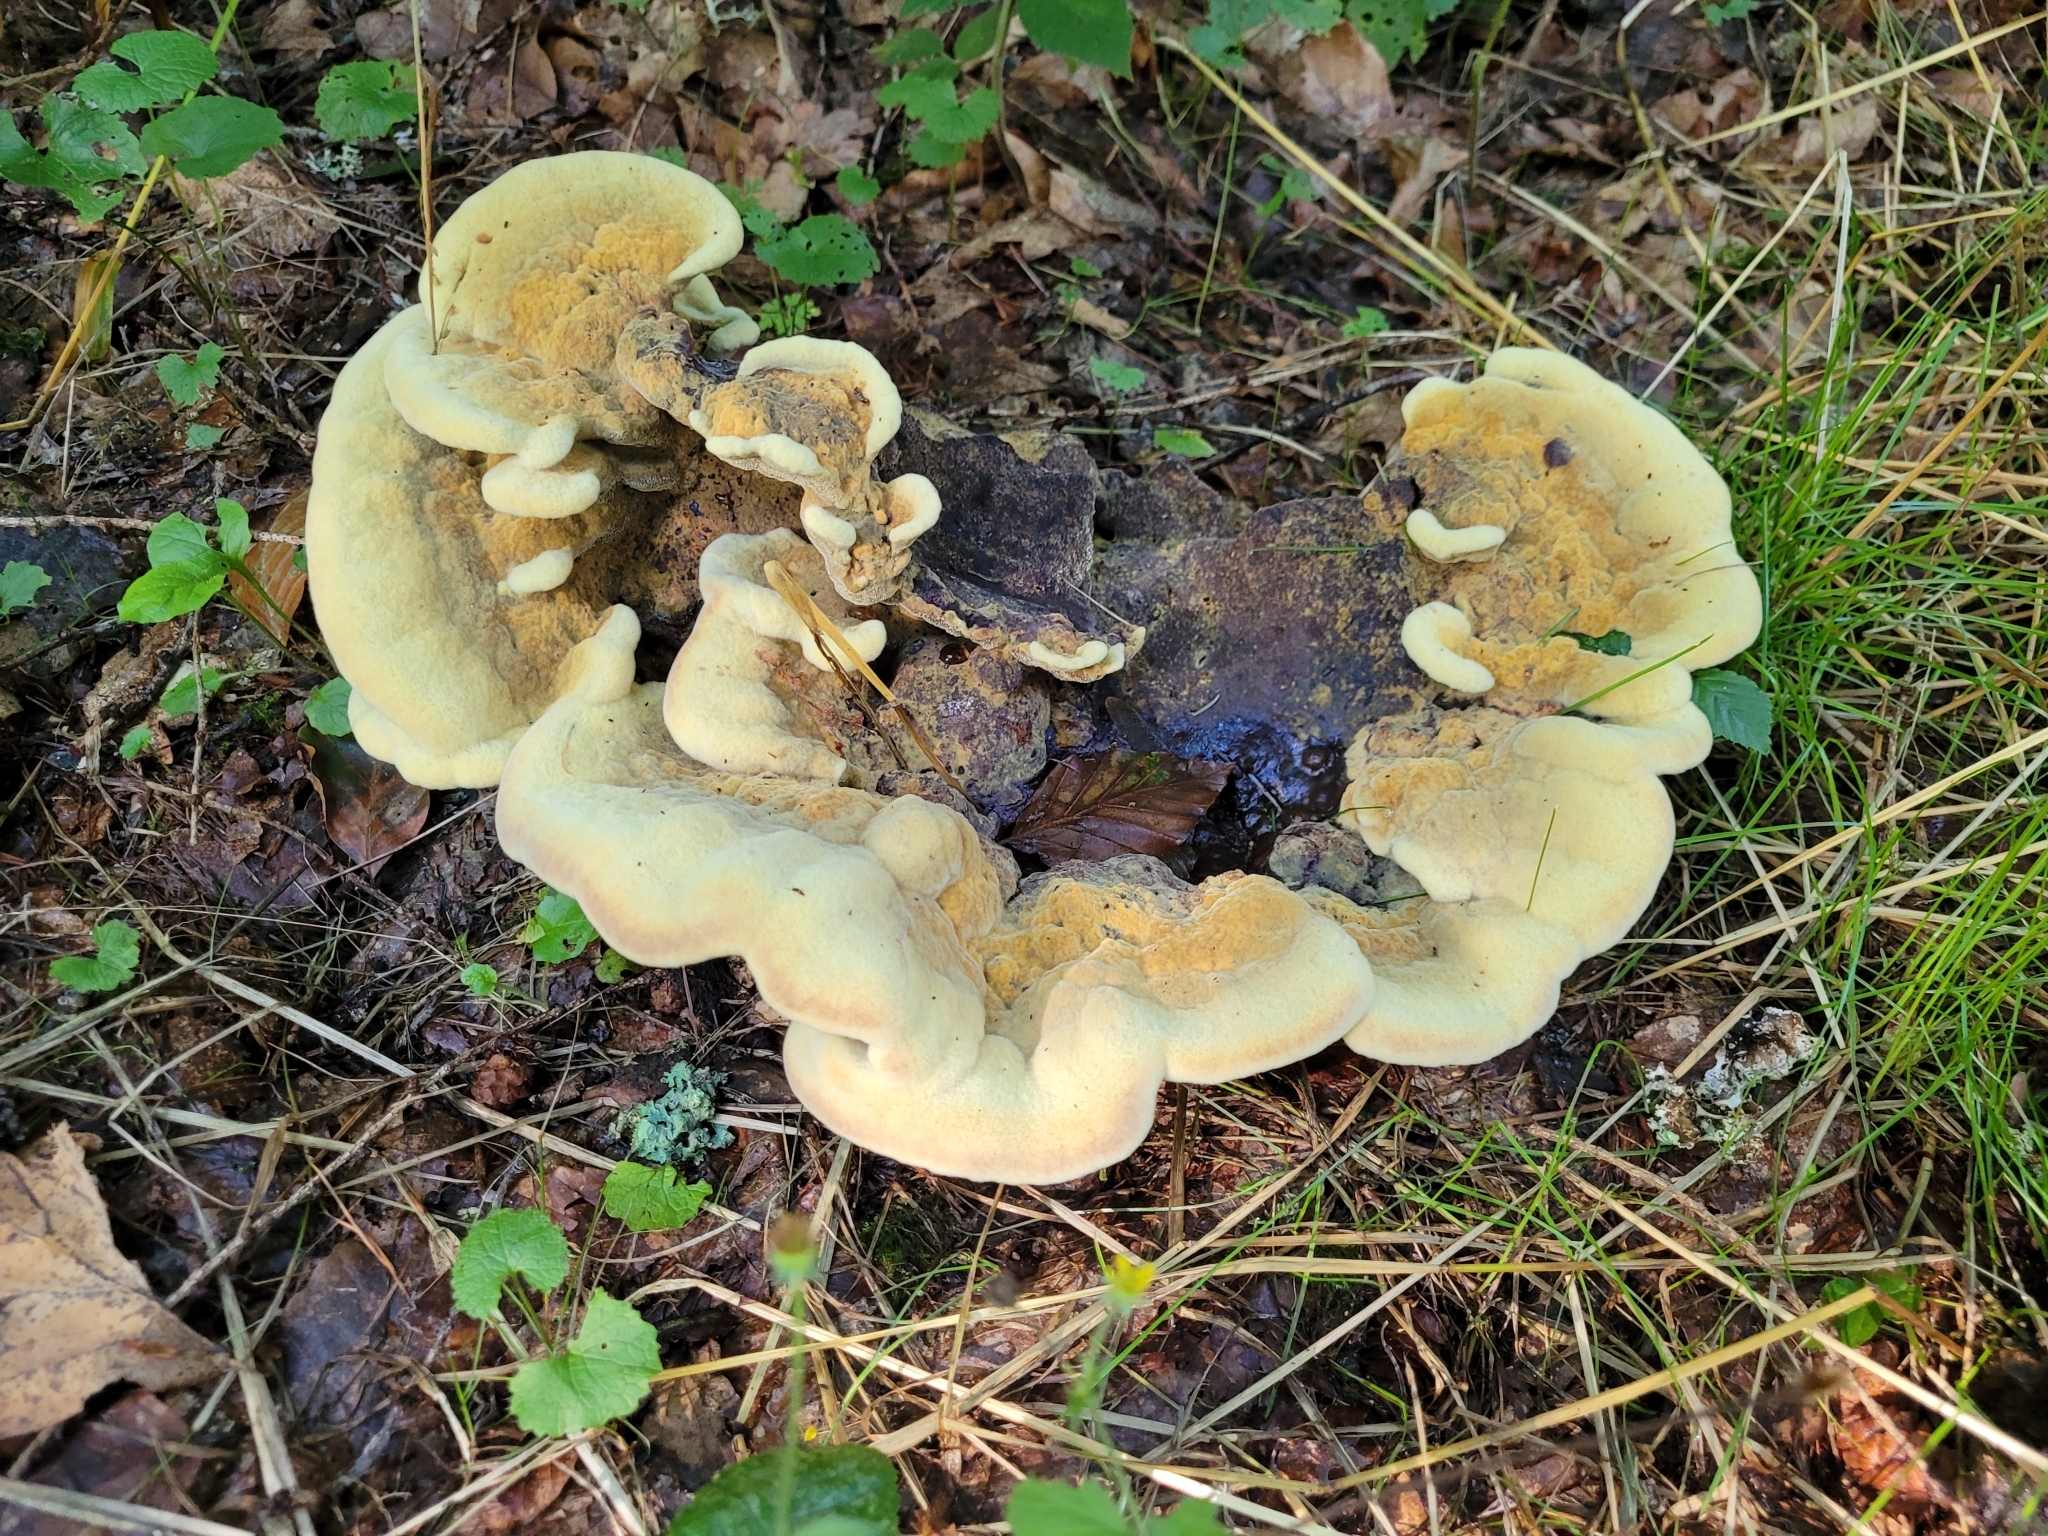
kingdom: Fungi
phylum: Basidiomycota
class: Agaricomycetes
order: Polyporales
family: Laetiporaceae
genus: Phaeolus
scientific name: Phaeolus schweinitzii
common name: Dyer's mazegill
